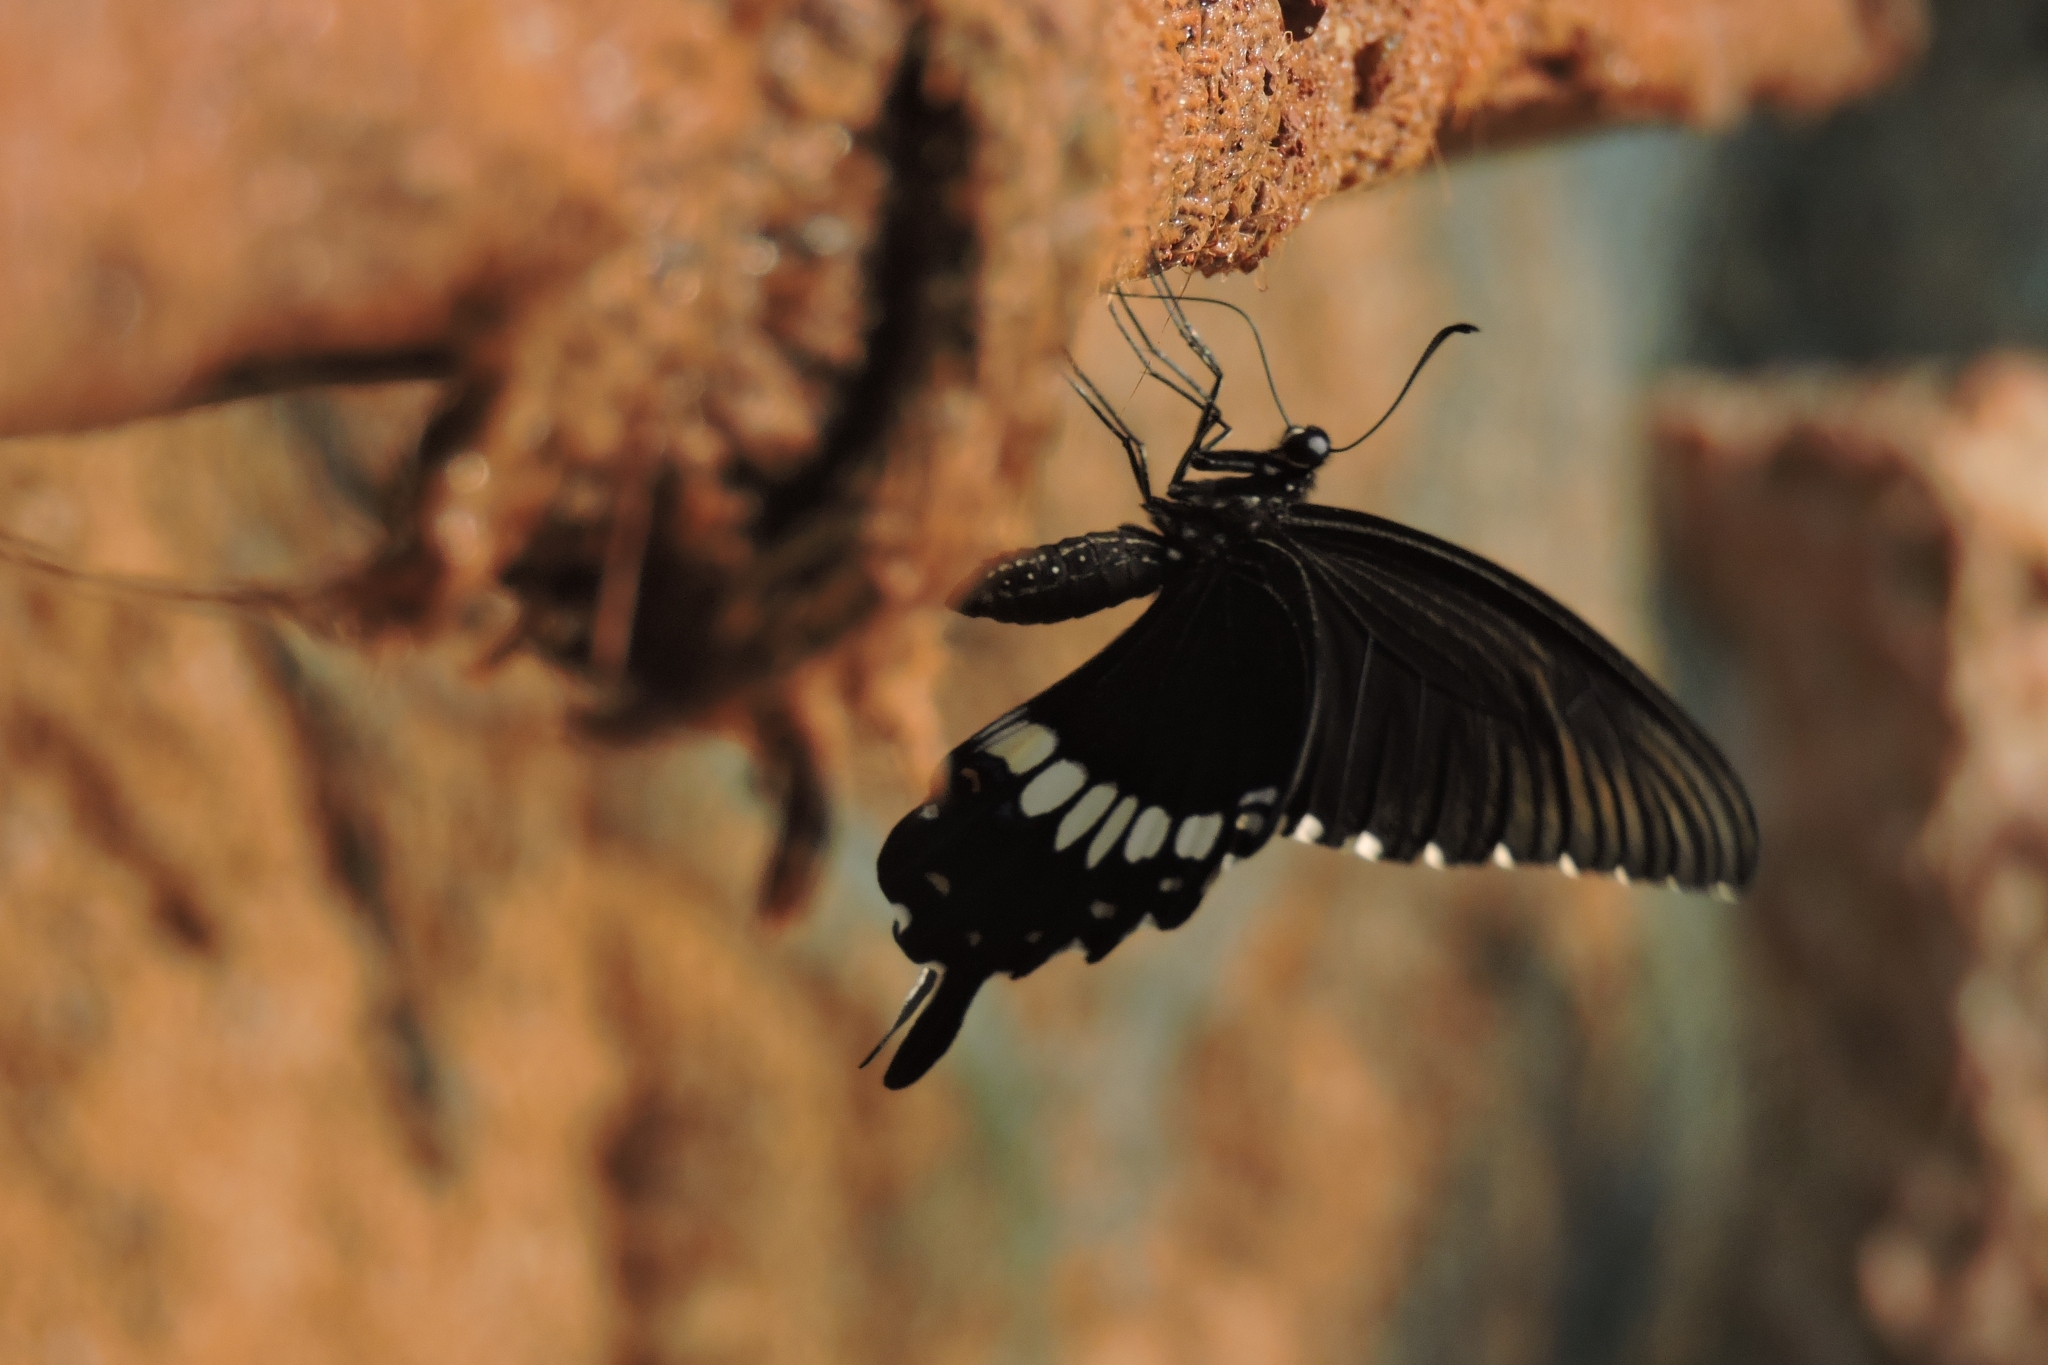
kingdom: Animalia
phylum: Arthropoda
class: Insecta
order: Lepidoptera
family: Papilionidae
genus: Papilio
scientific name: Papilio polytes
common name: Common mormon
